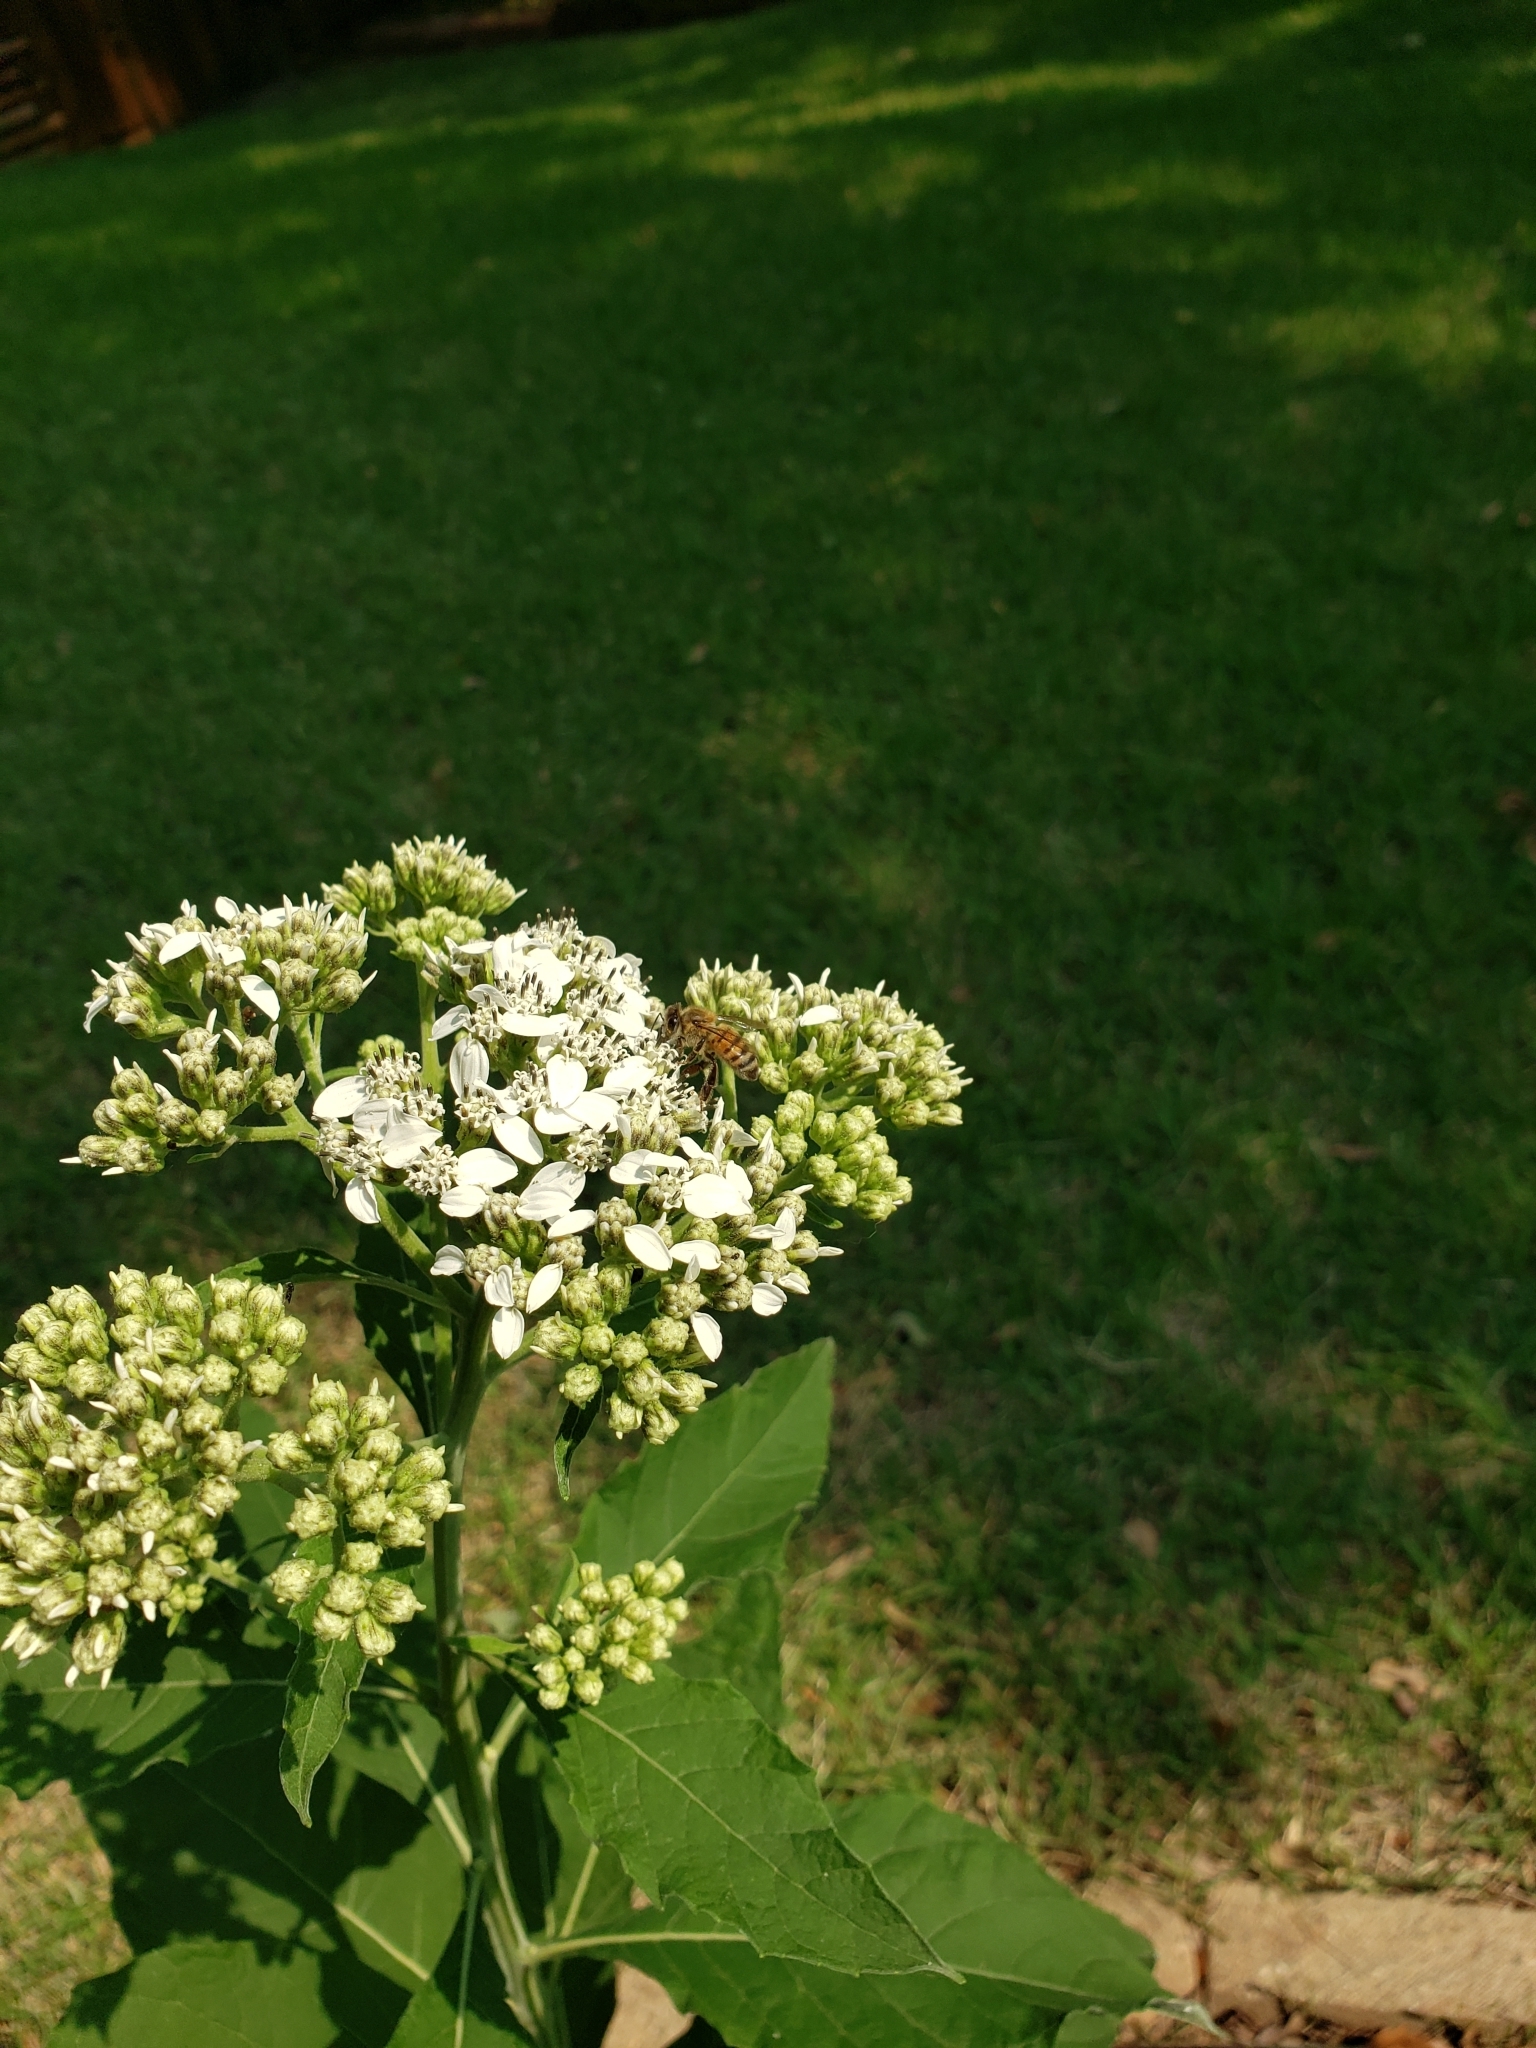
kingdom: Animalia
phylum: Arthropoda
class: Insecta
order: Hymenoptera
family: Apidae
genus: Apis
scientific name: Apis mellifera
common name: Honey bee
